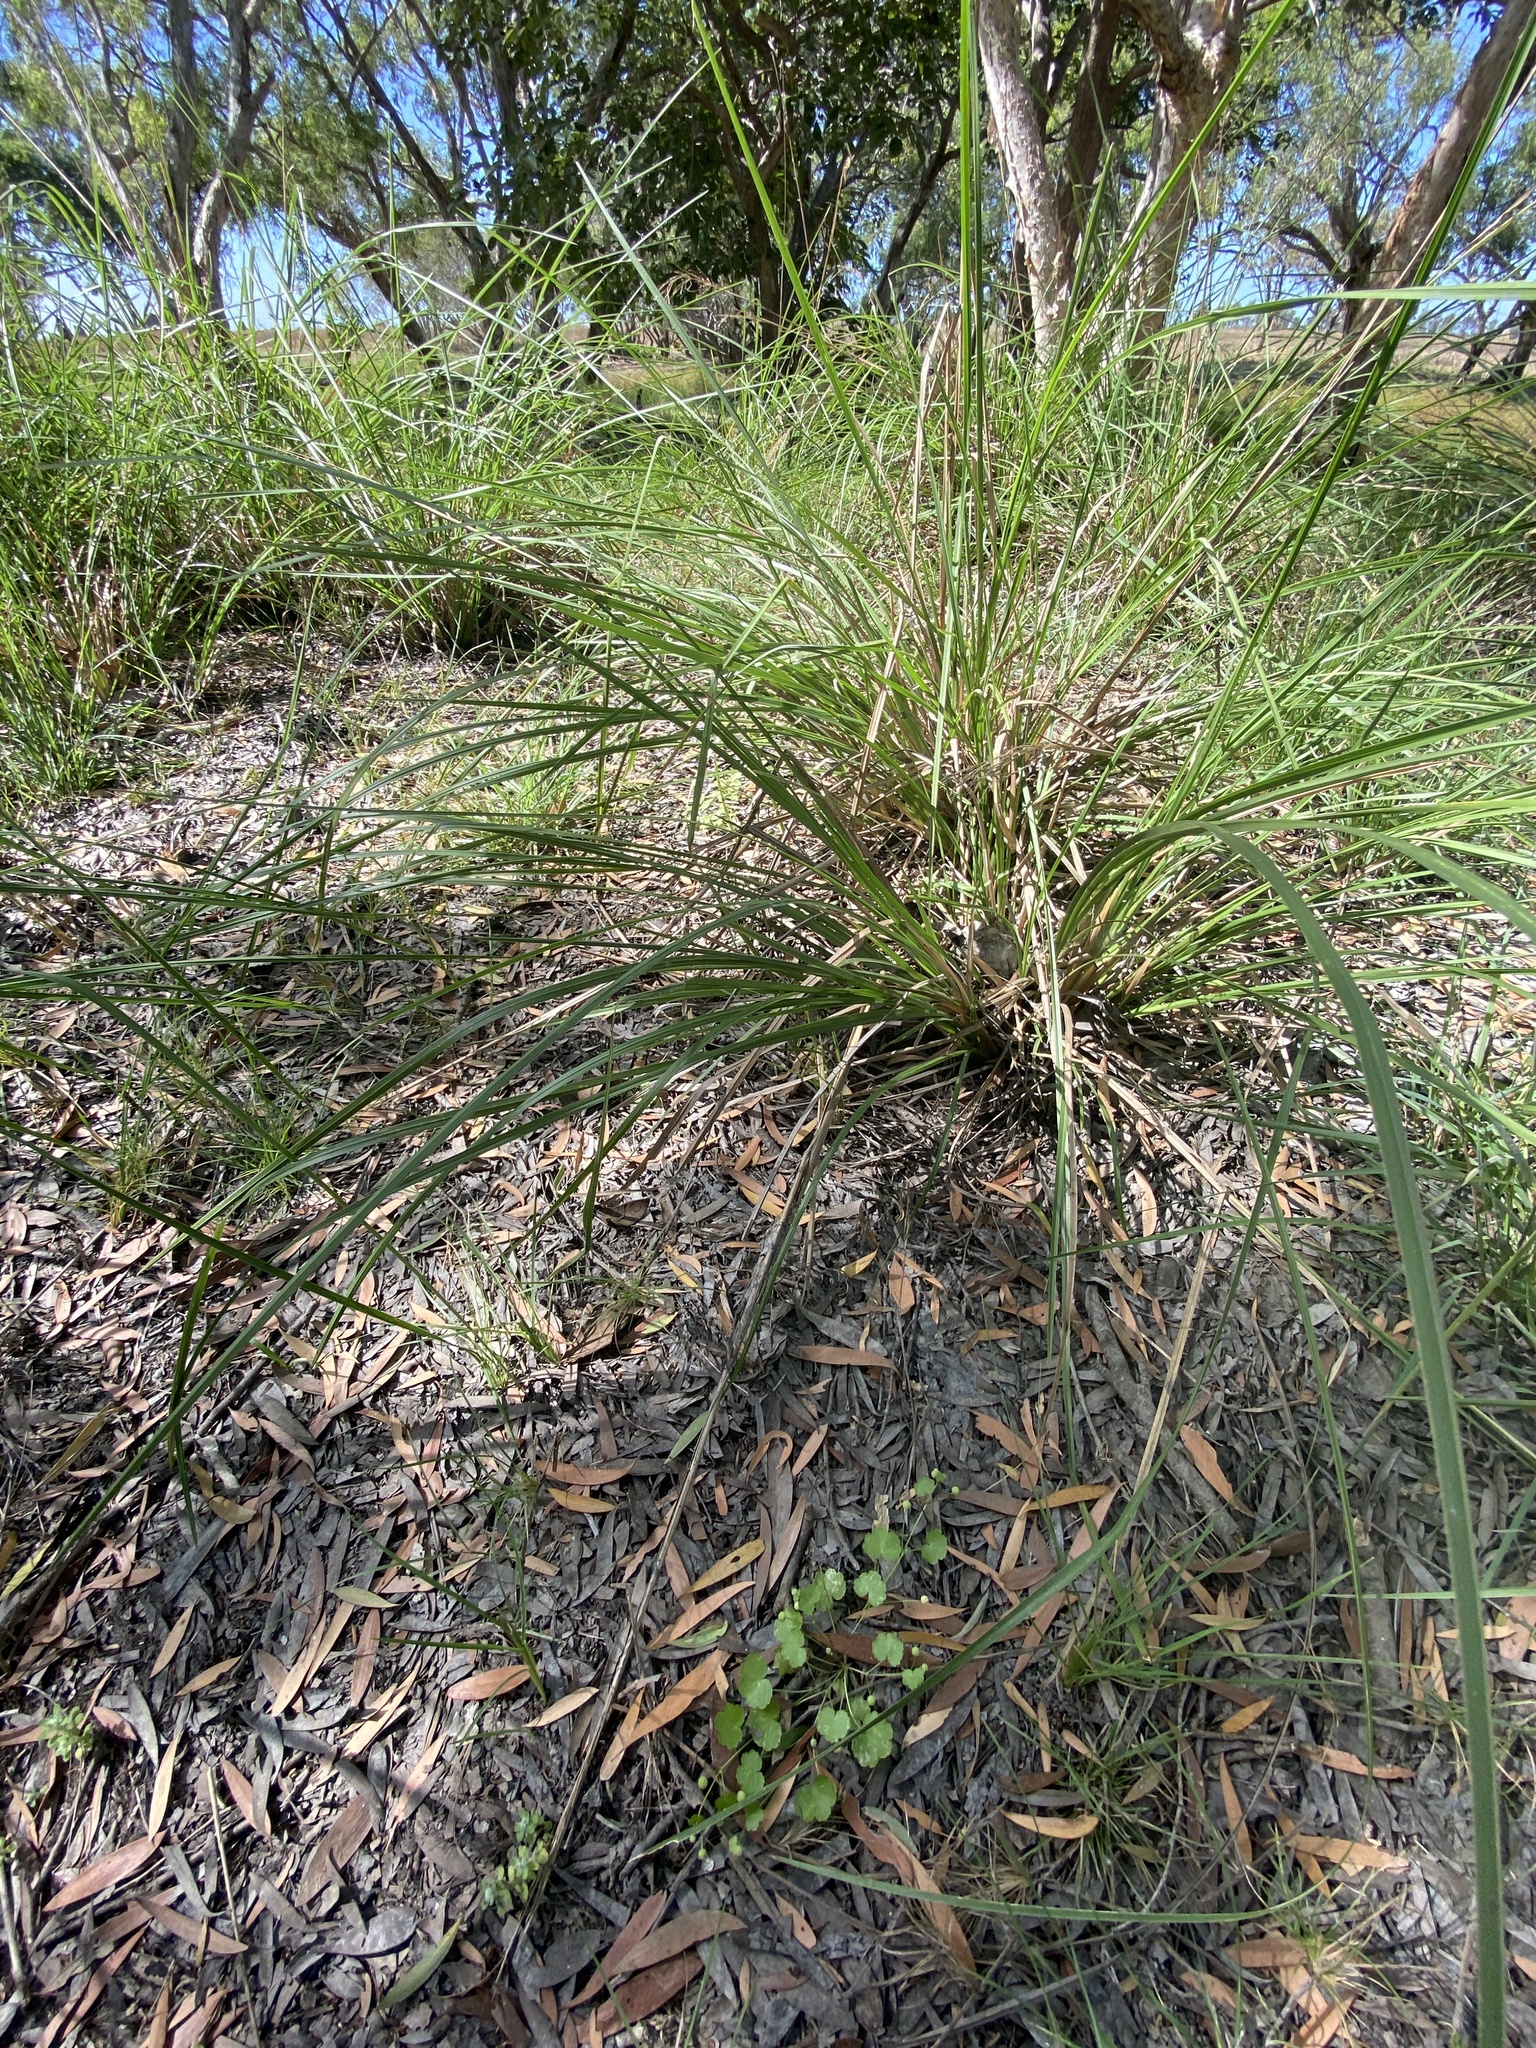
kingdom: Plantae
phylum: Tracheophyta
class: Magnoliopsida
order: Apiales
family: Araliaceae
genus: Hydrocotyle
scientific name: Hydrocotyle tumida
